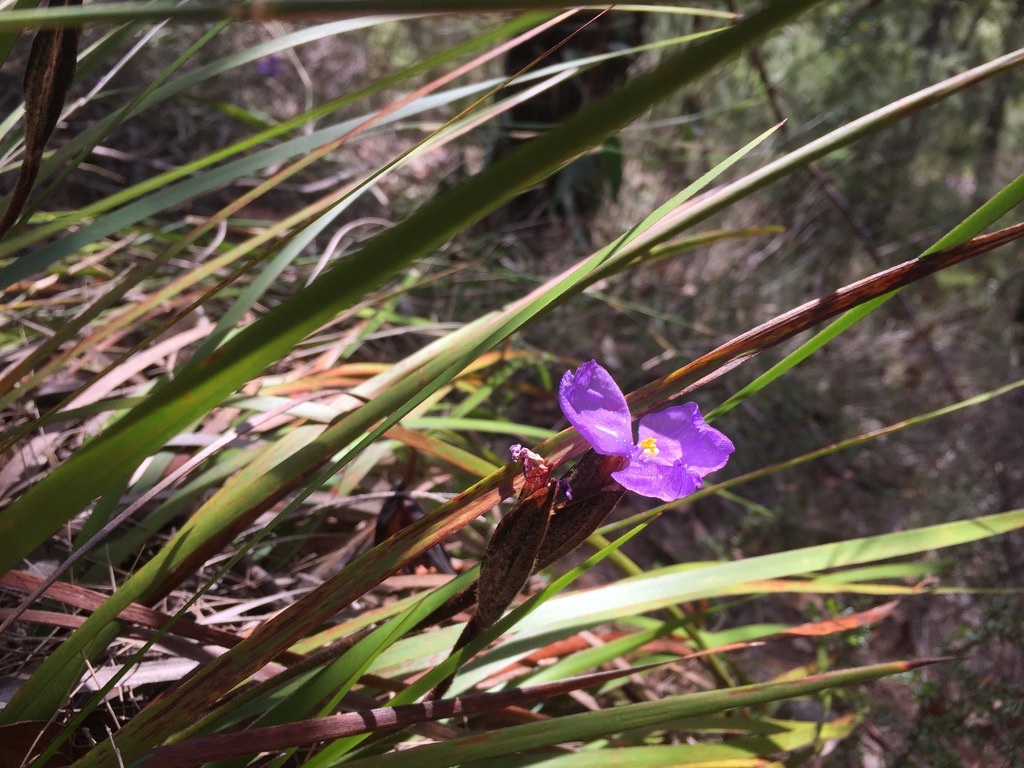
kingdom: Plantae
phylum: Tracheophyta
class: Liliopsida
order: Asparagales
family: Iridaceae
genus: Patersonia
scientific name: Patersonia sericea
